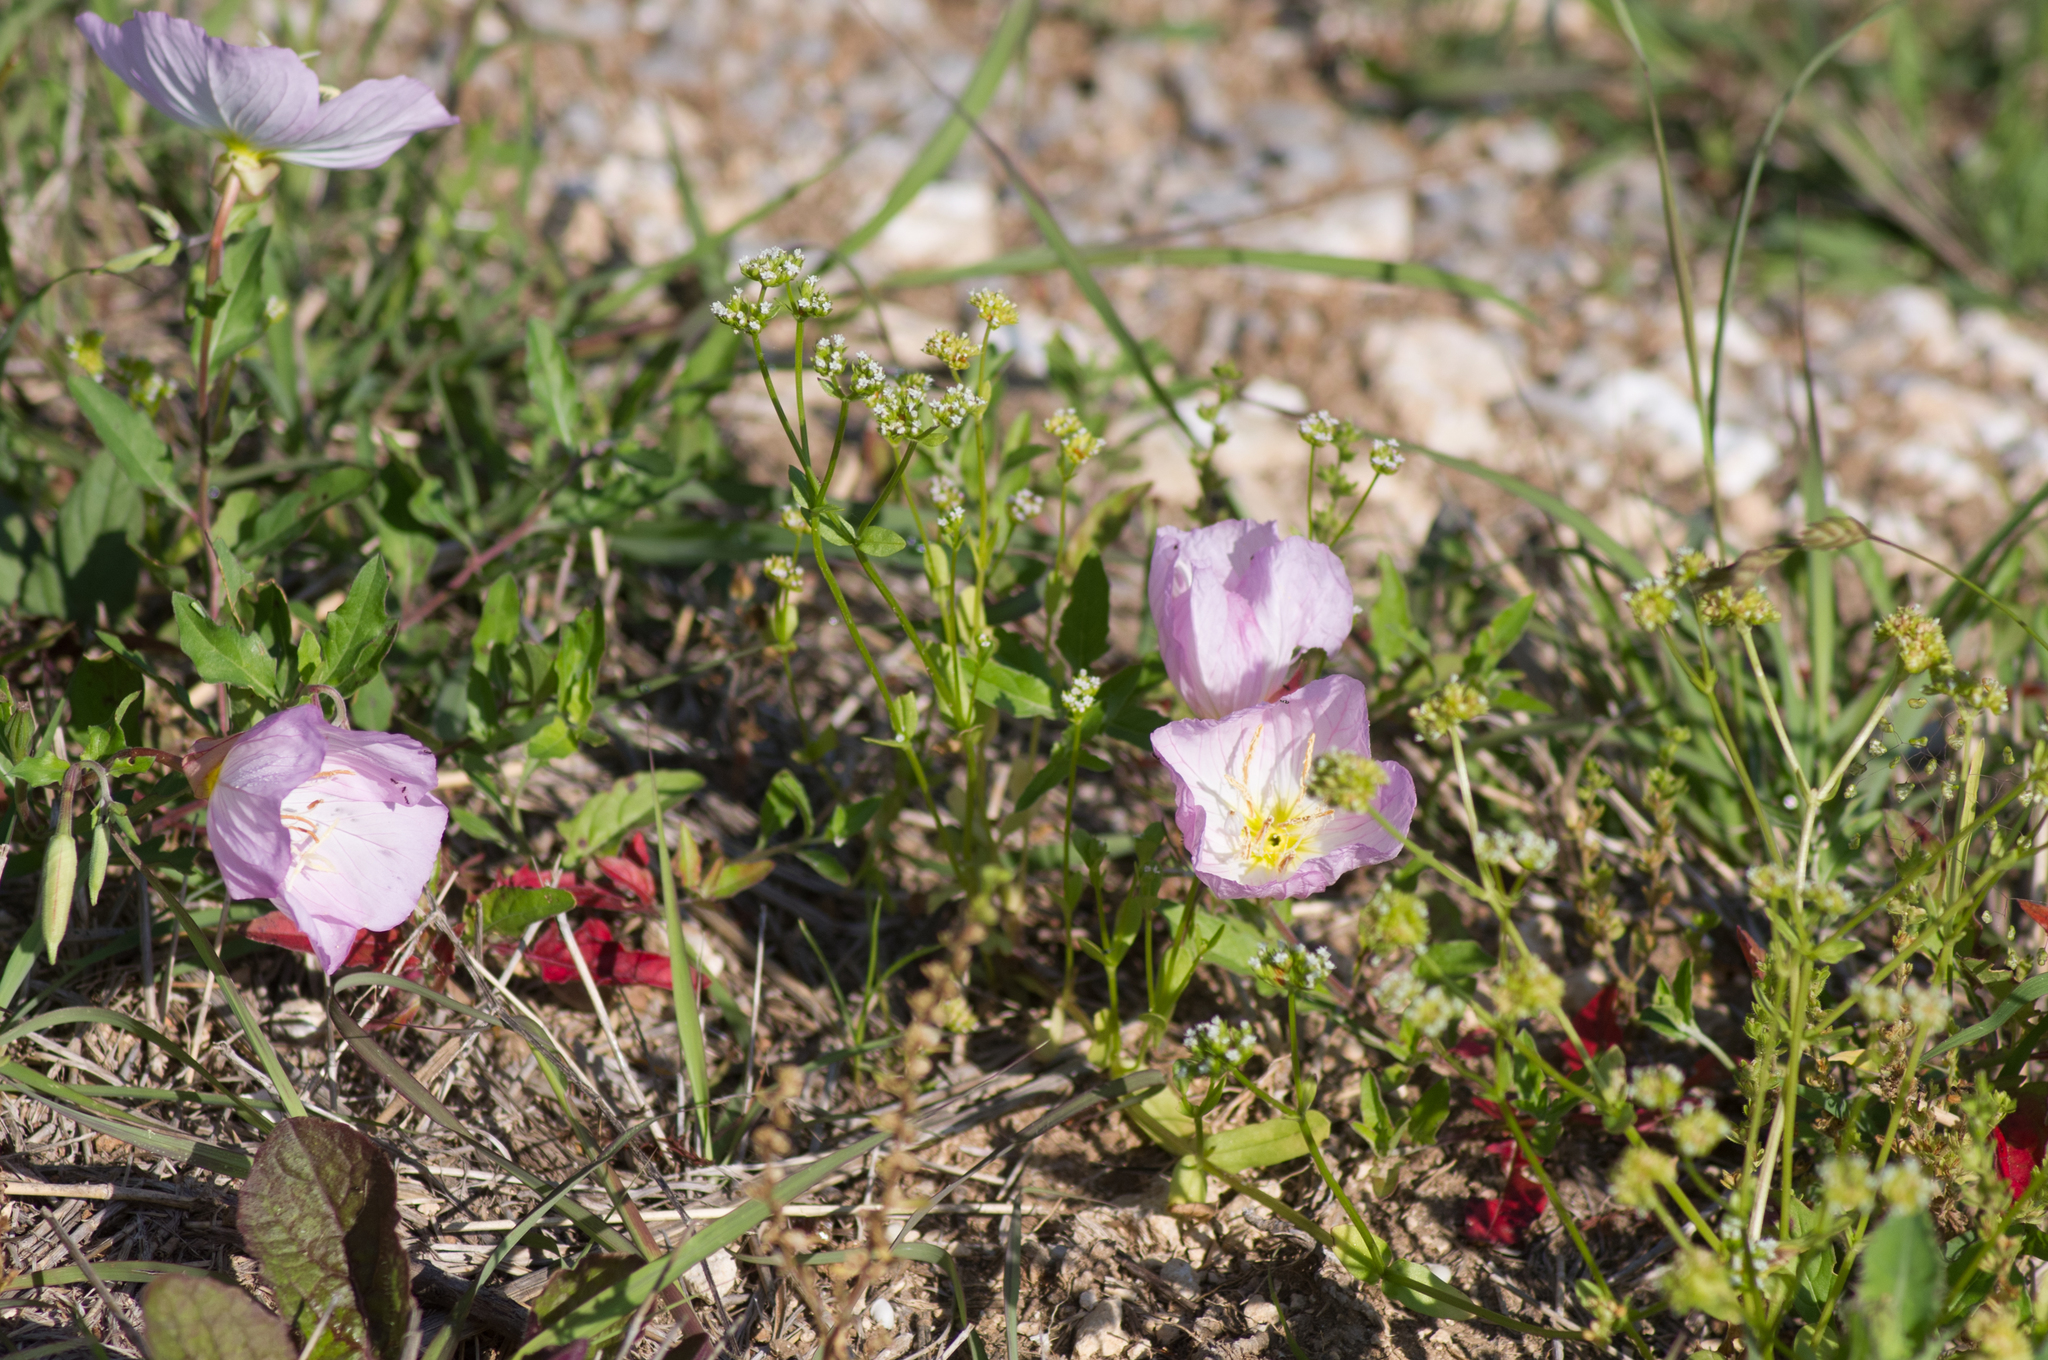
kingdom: Plantae
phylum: Tracheophyta
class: Magnoliopsida
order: Myrtales
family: Onagraceae
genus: Oenothera
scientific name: Oenothera speciosa
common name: White evening-primrose
